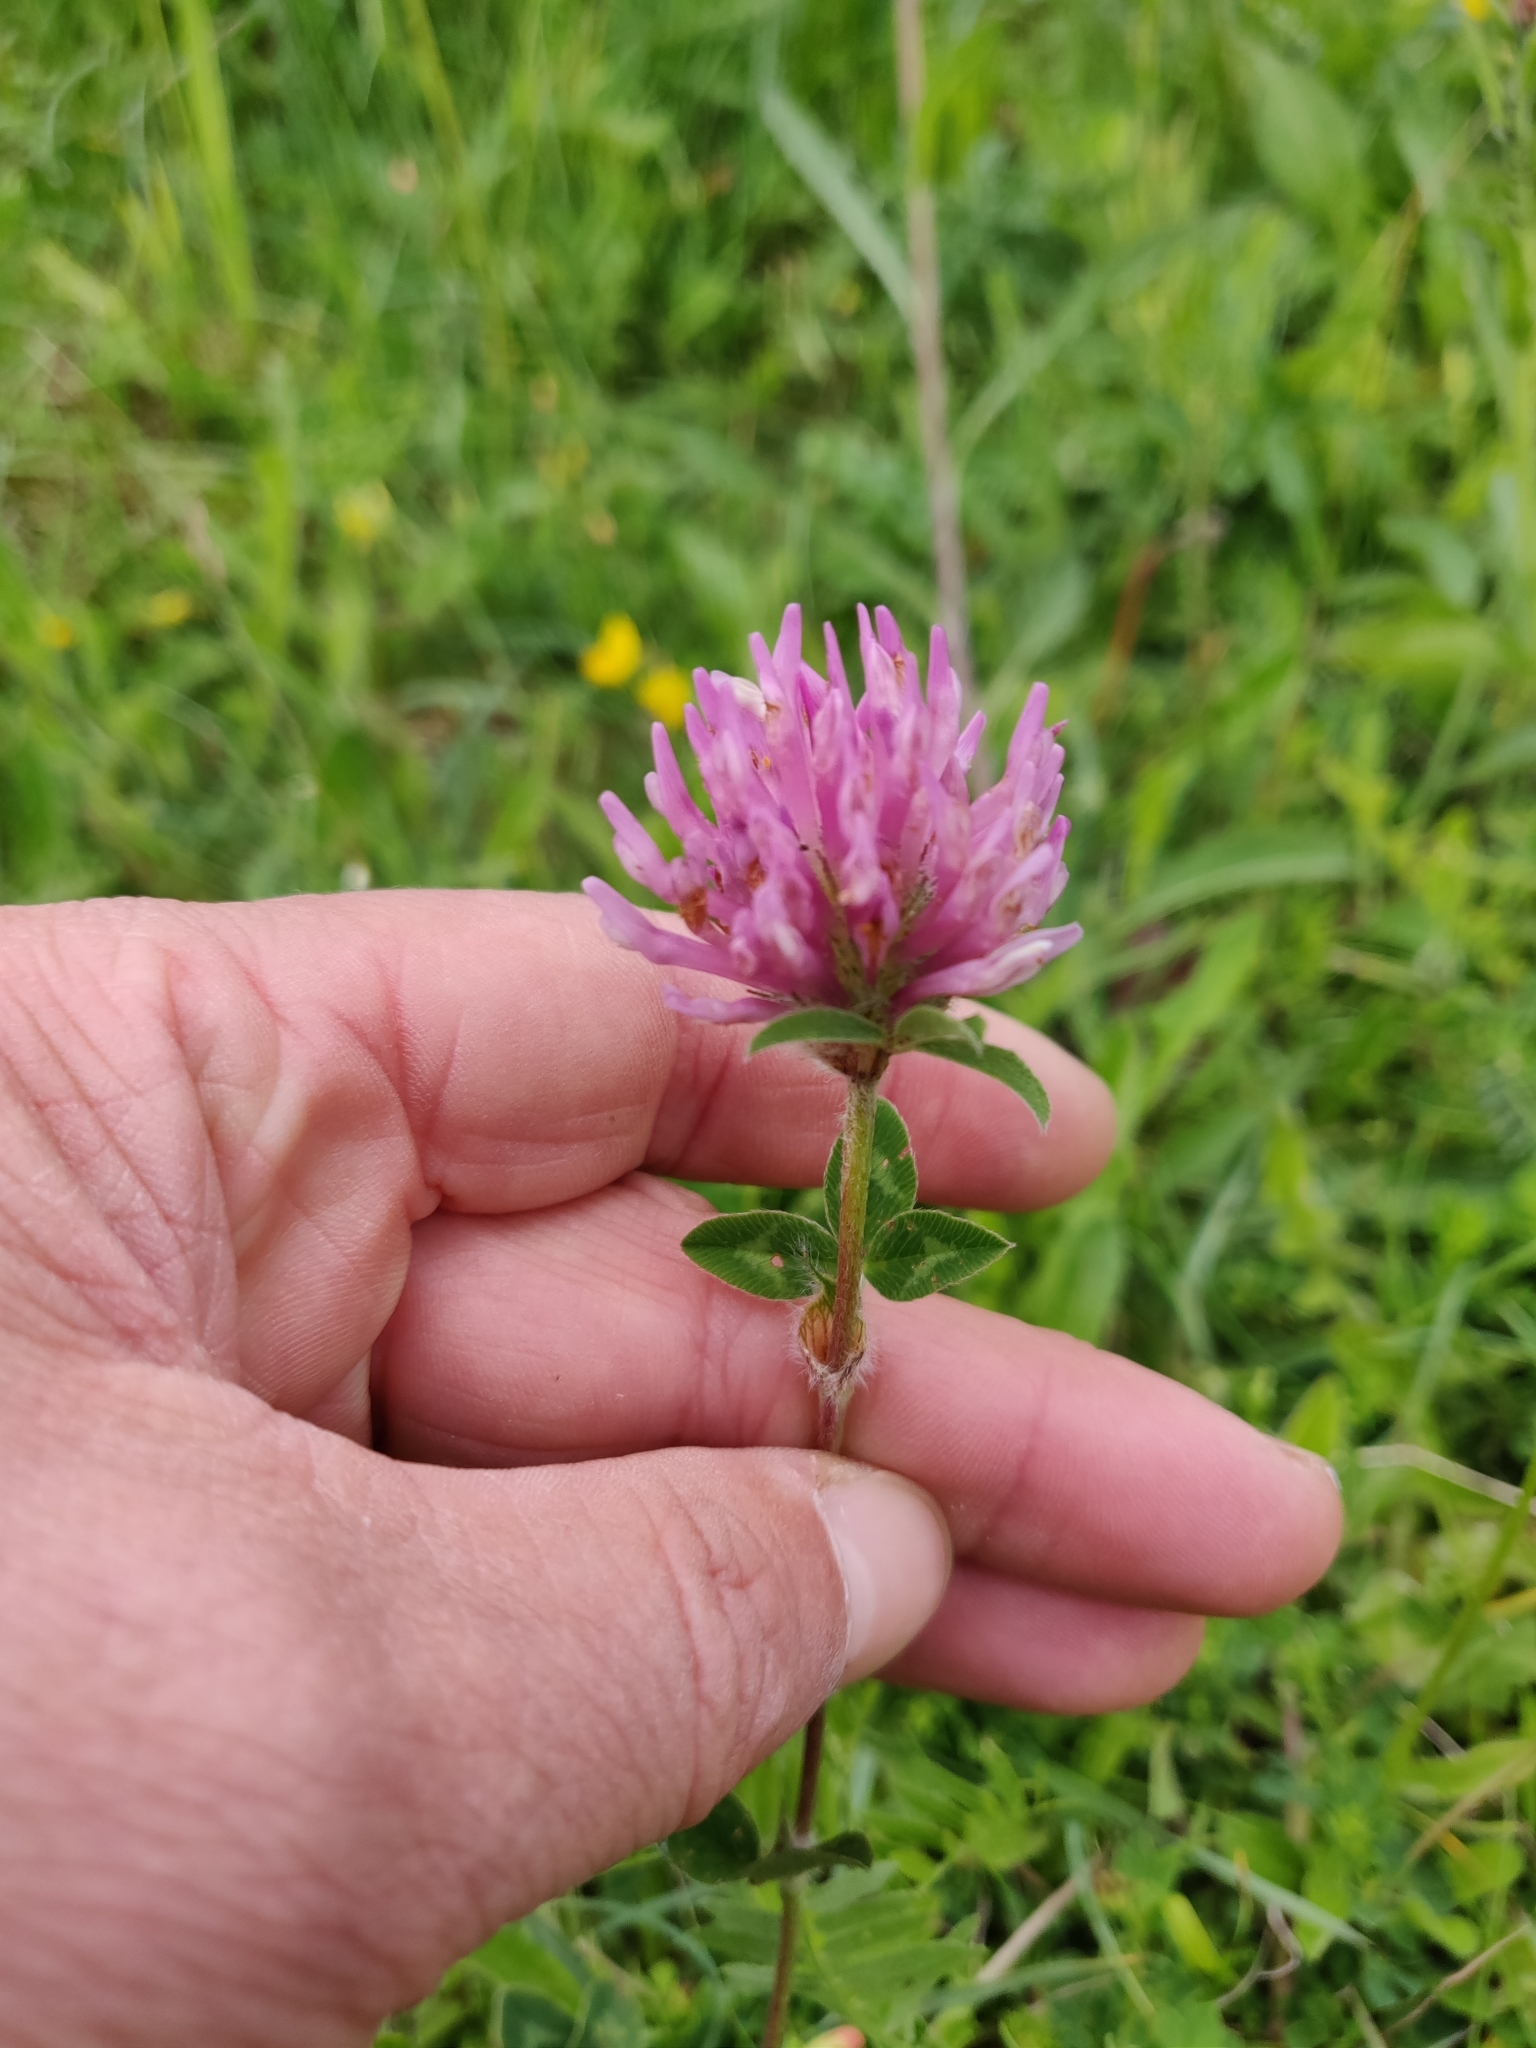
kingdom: Plantae
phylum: Tracheophyta
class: Magnoliopsida
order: Fabales
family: Fabaceae
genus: Trifolium
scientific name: Trifolium pratense
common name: Red clover
